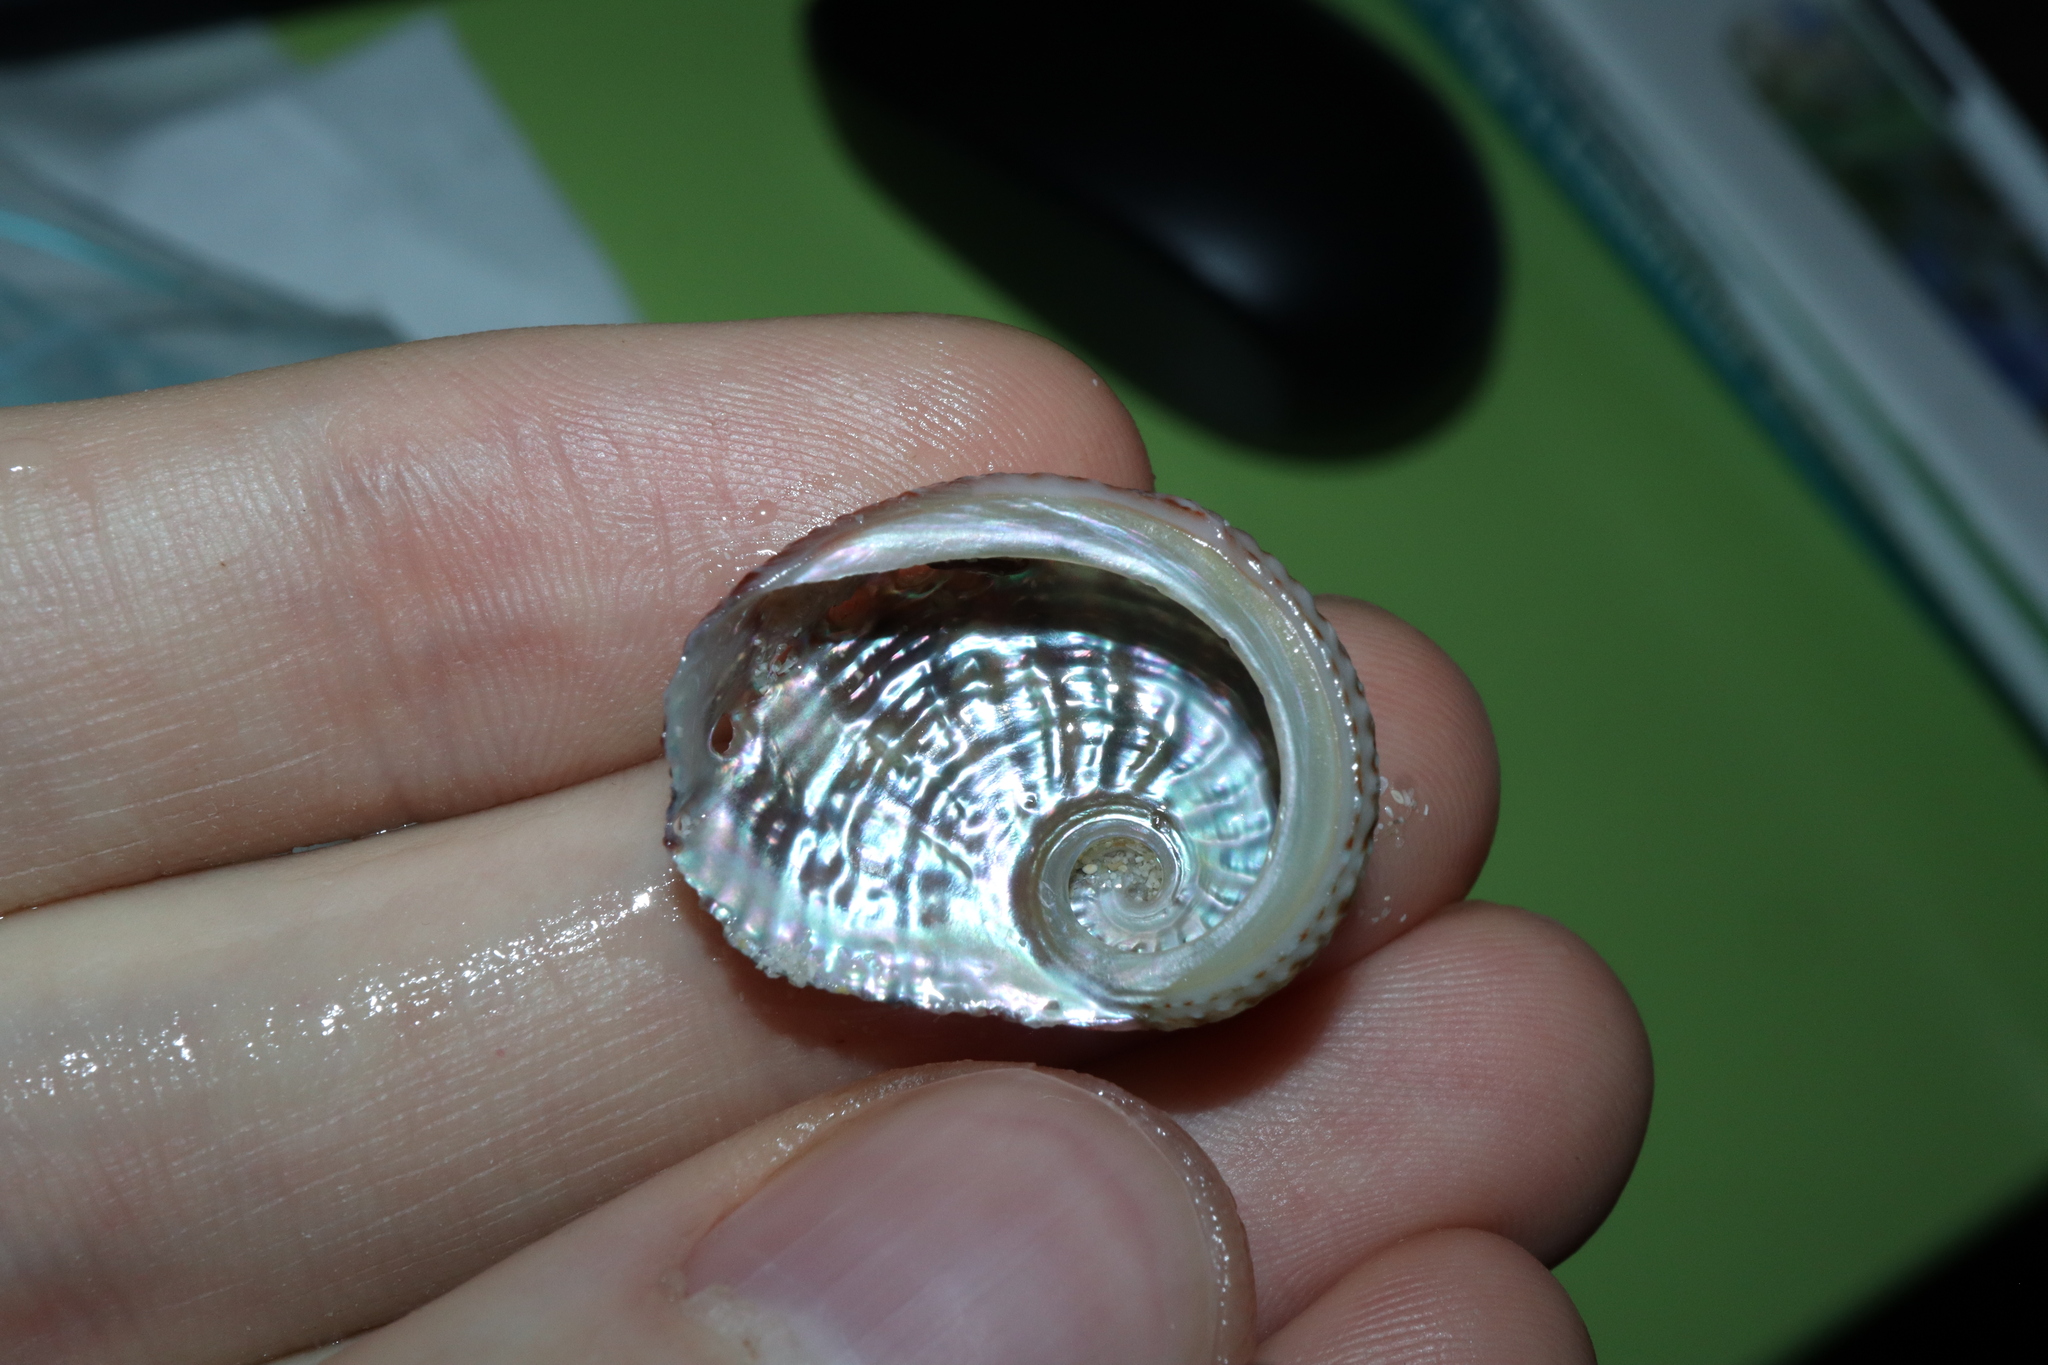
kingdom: Animalia
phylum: Mollusca
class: Gastropoda
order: Lepetellida
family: Haliotidae
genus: Haliotis
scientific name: Haliotis roei
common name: Roe's abalone
